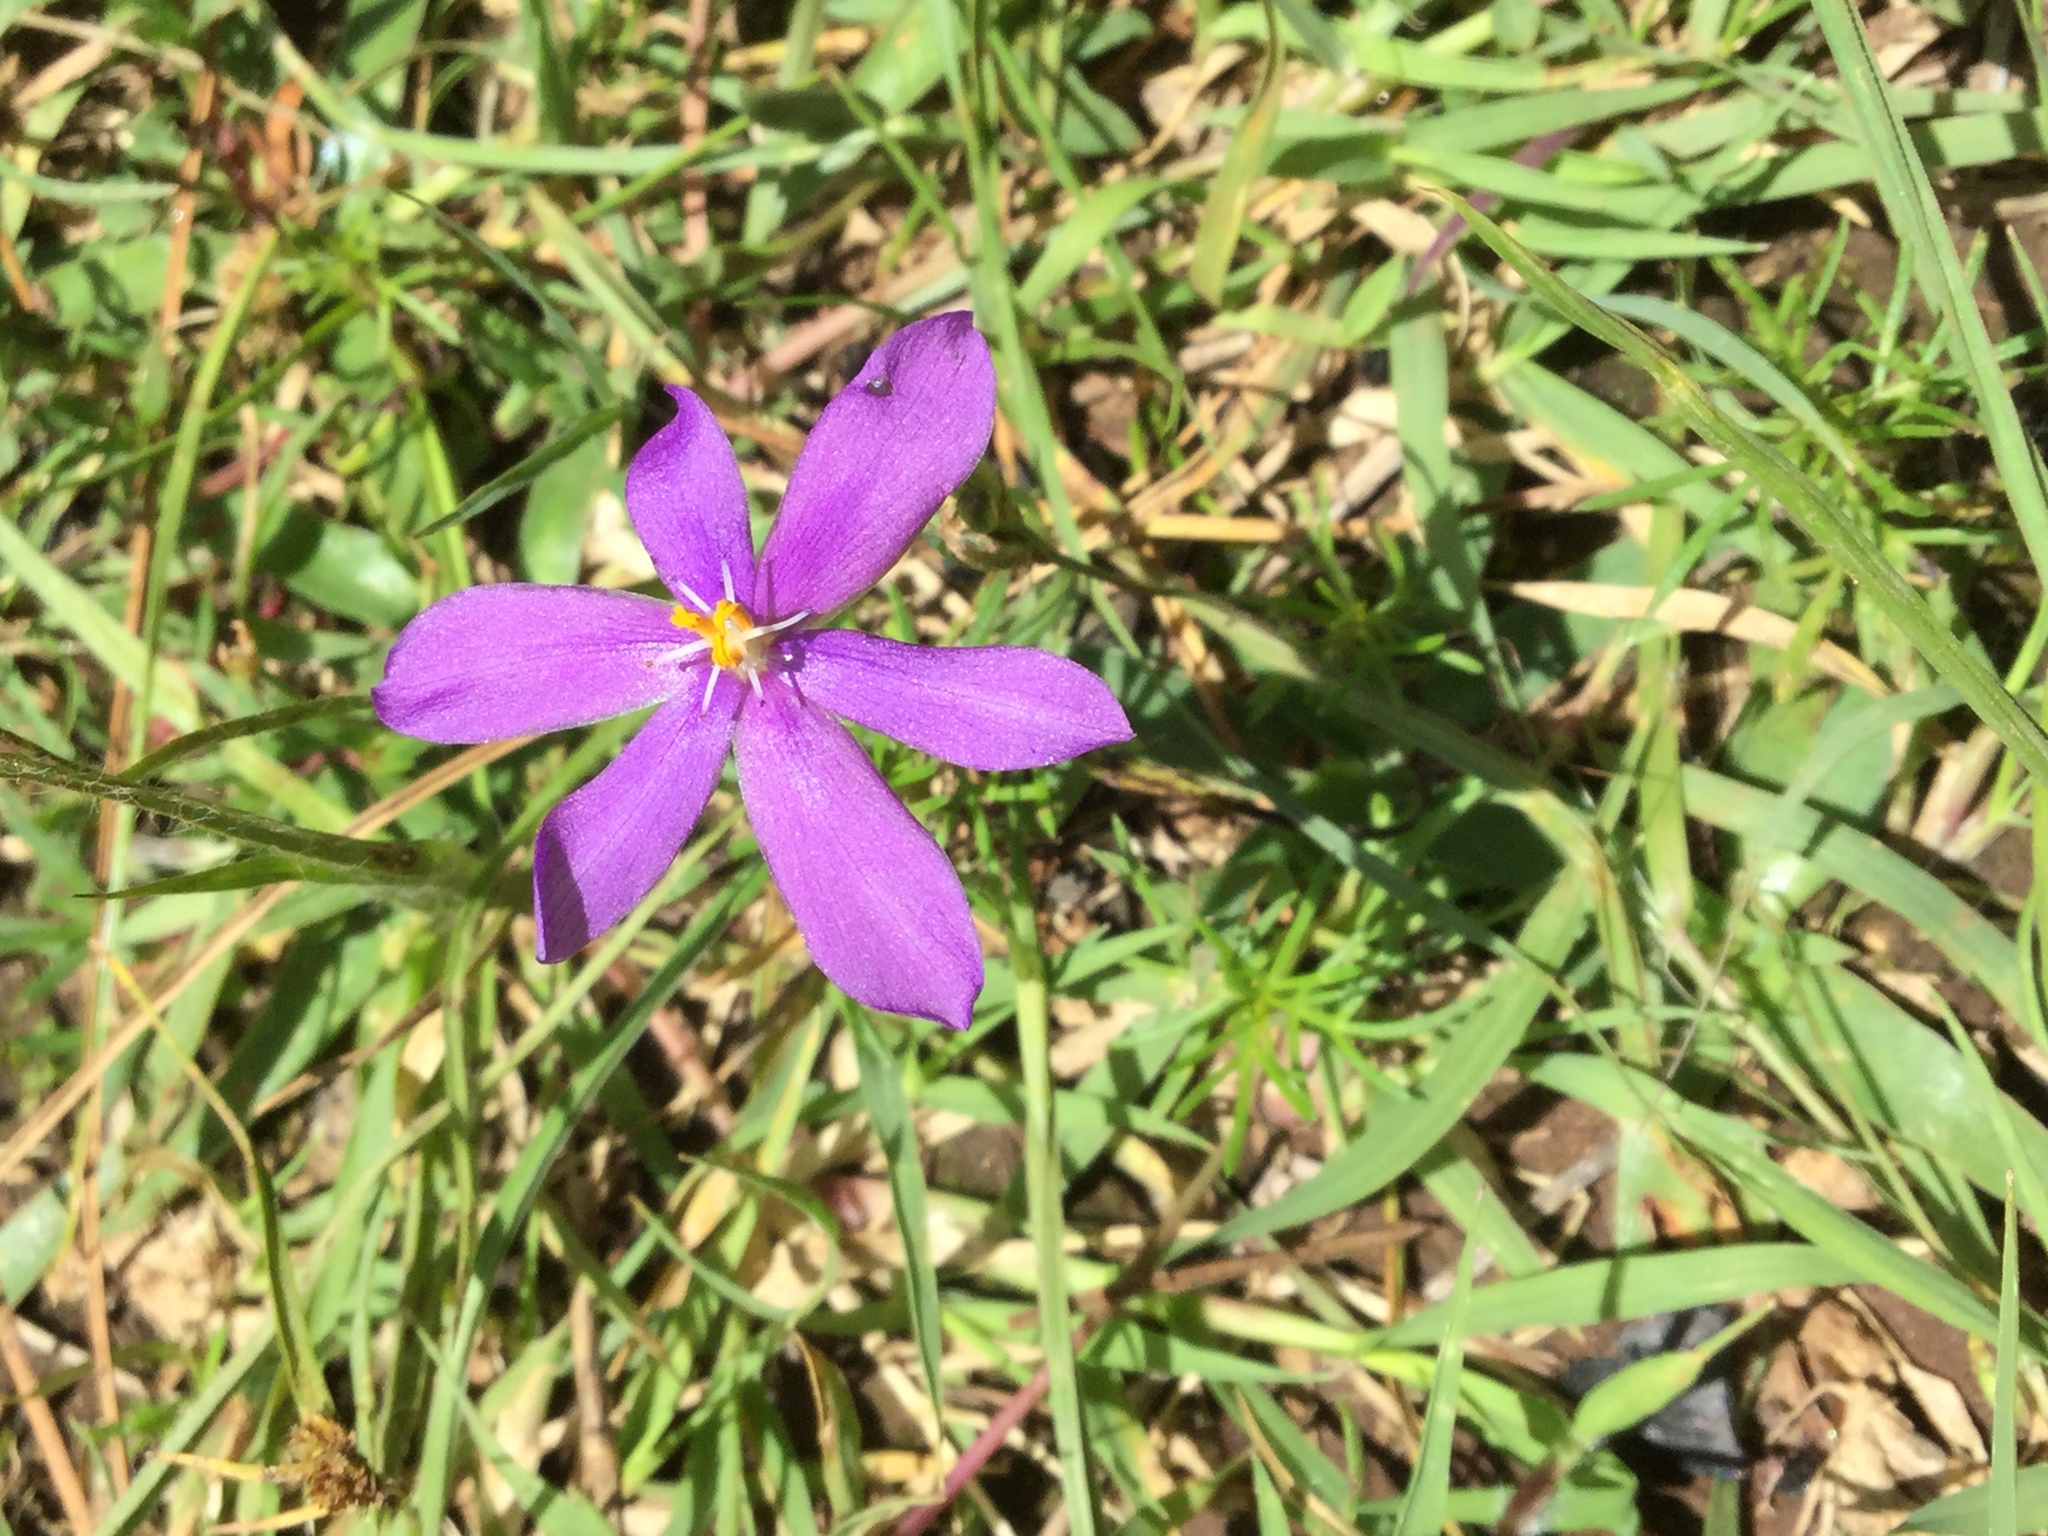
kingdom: Plantae
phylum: Tracheophyta
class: Liliopsida
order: Asparagales
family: Iridaceae
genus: Nemastylis
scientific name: Nemastylis tenuis
